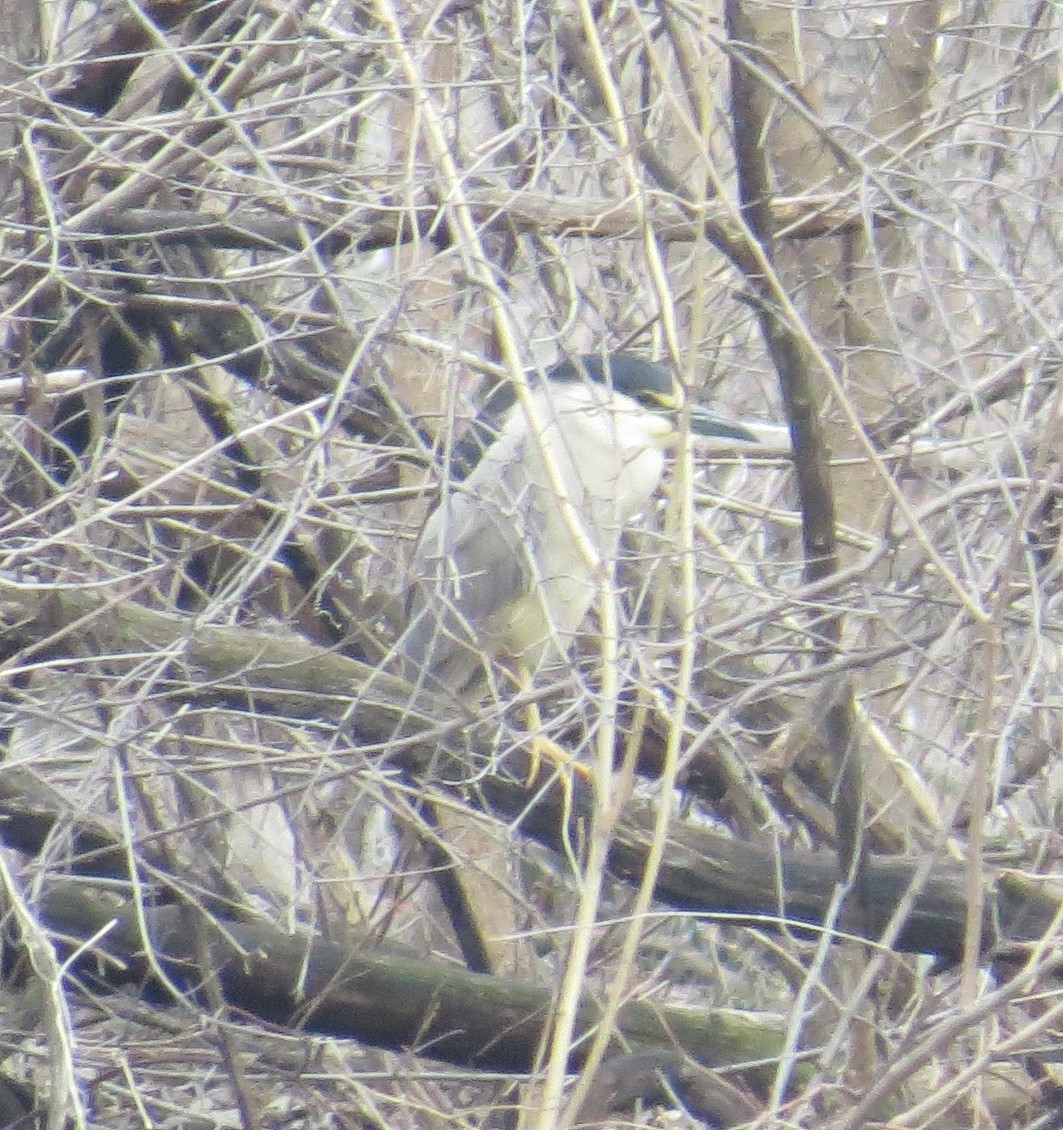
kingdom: Animalia
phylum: Chordata
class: Aves
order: Pelecaniformes
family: Ardeidae
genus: Nycticorax
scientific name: Nycticorax nycticorax
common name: Black-crowned night heron
